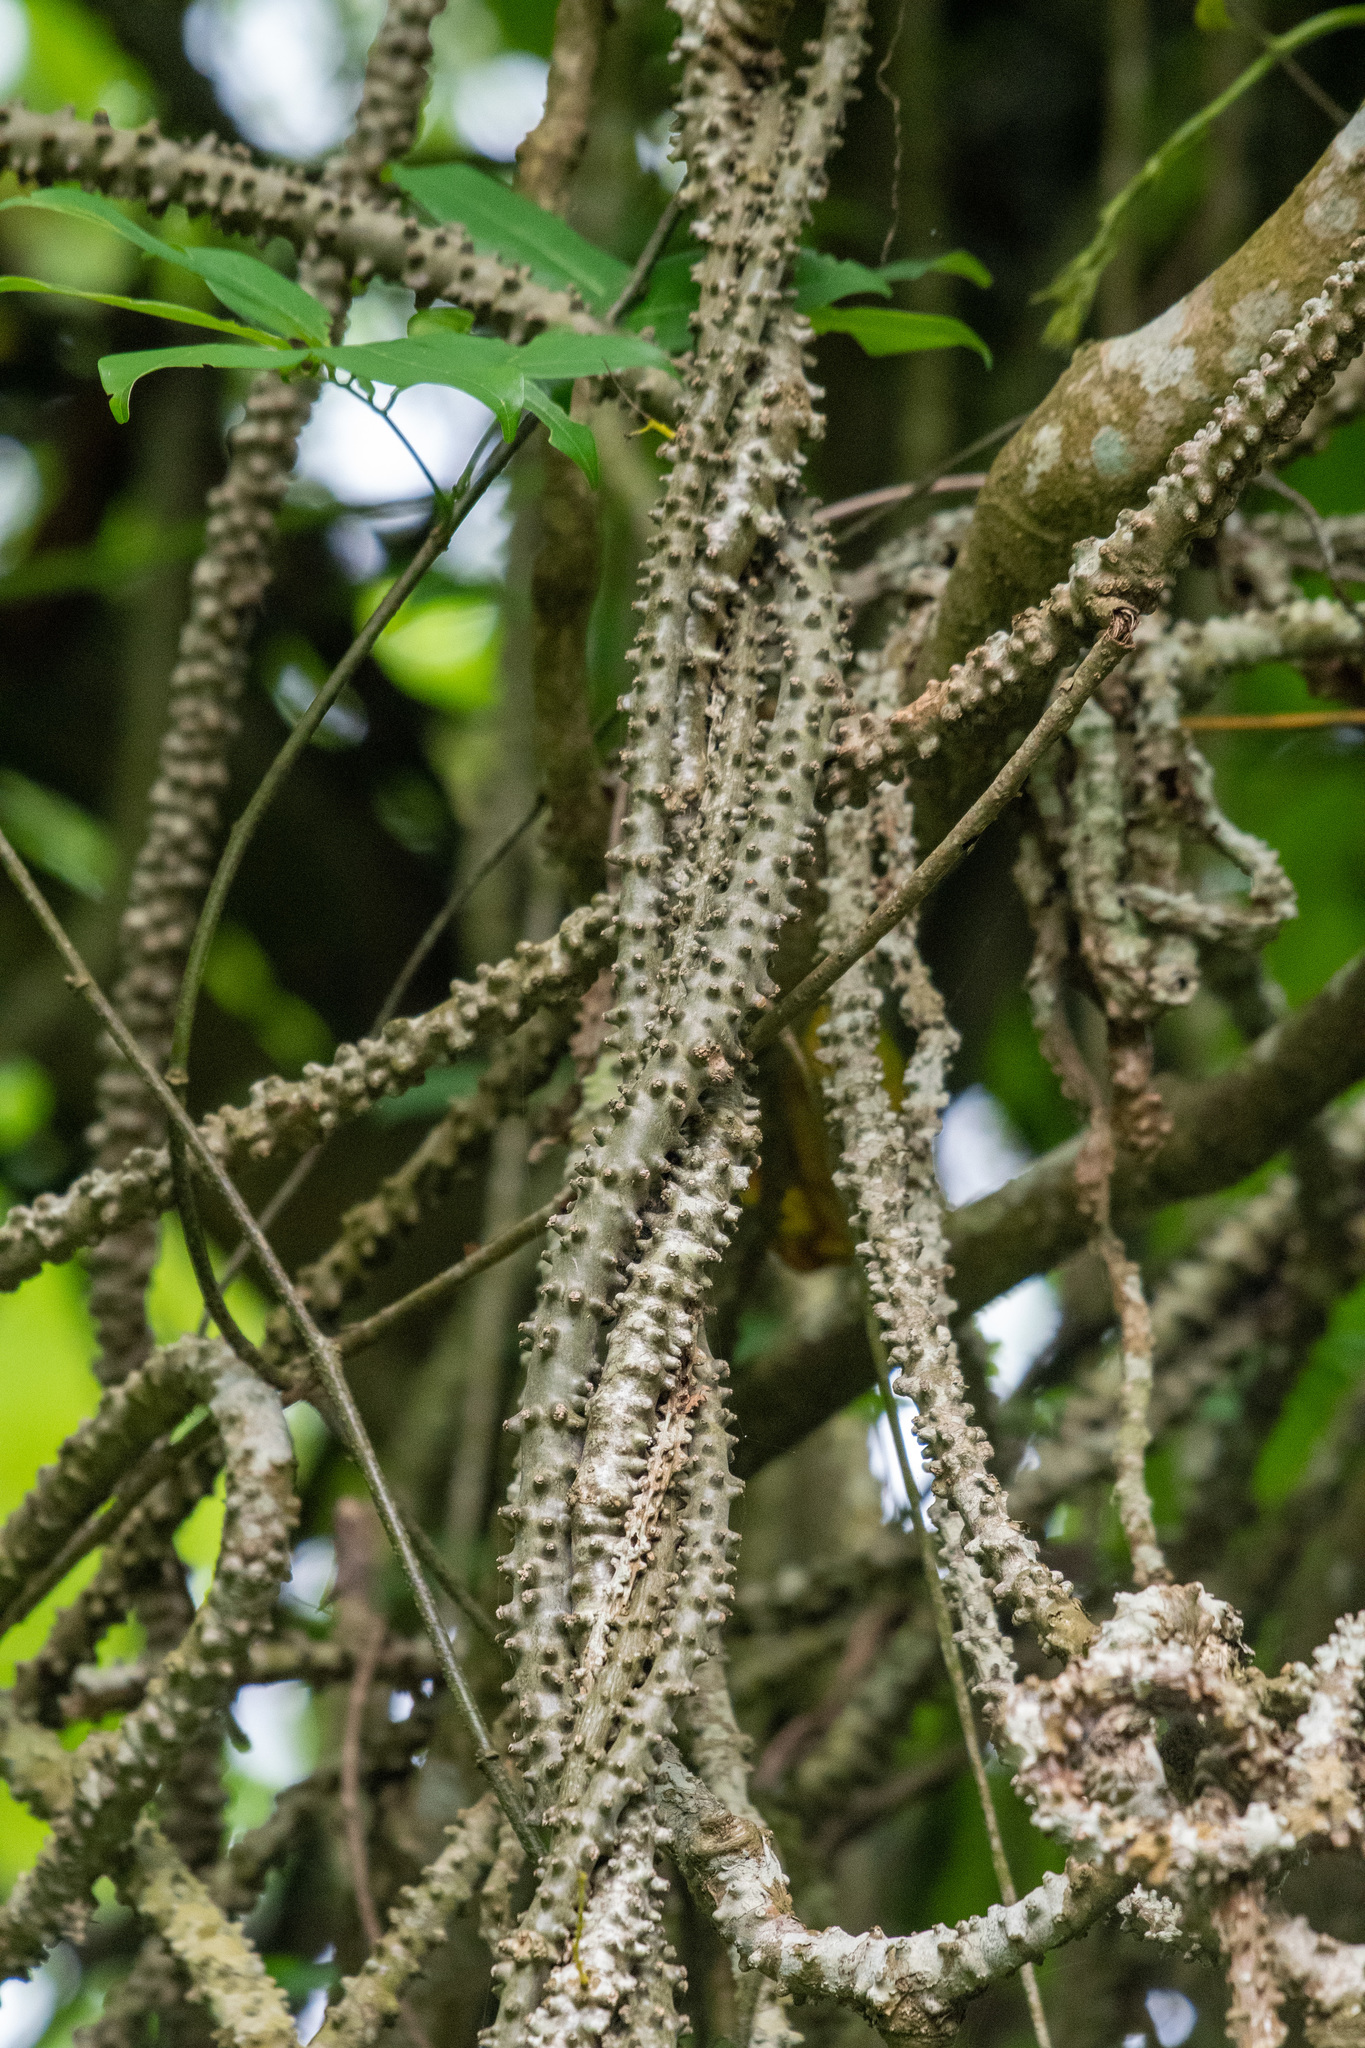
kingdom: Plantae
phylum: Tracheophyta
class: Magnoliopsida
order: Ranunculales
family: Menispermaceae
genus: Tinospora
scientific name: Tinospora crispa
